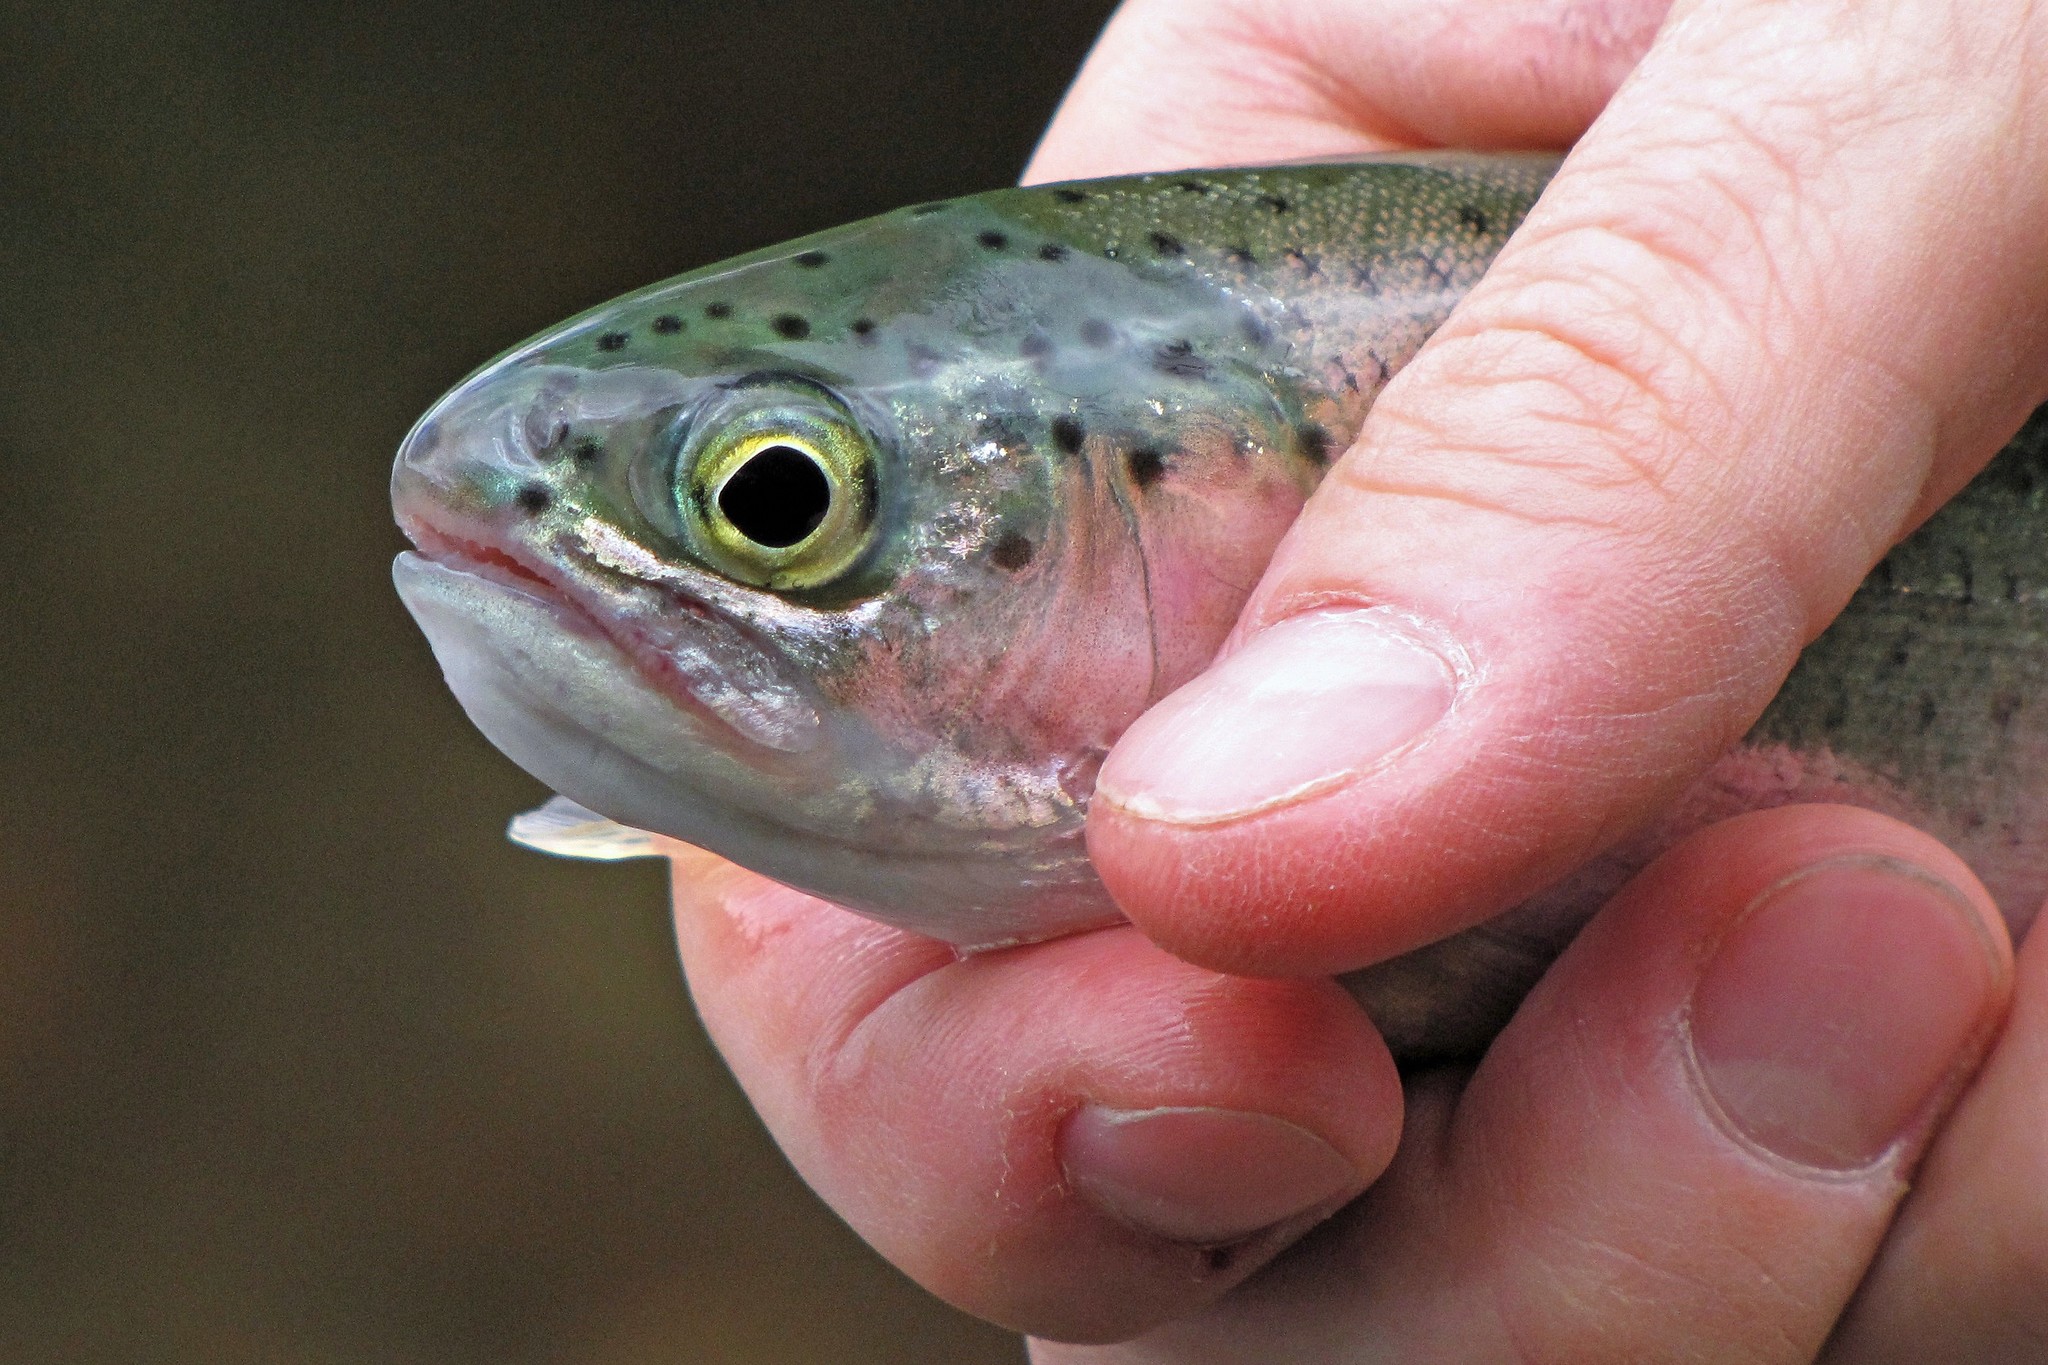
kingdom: Animalia
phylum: Chordata
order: Salmoniformes
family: Salmonidae
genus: Oncorhynchus
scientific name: Oncorhynchus mykiss
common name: Rainbow trout
